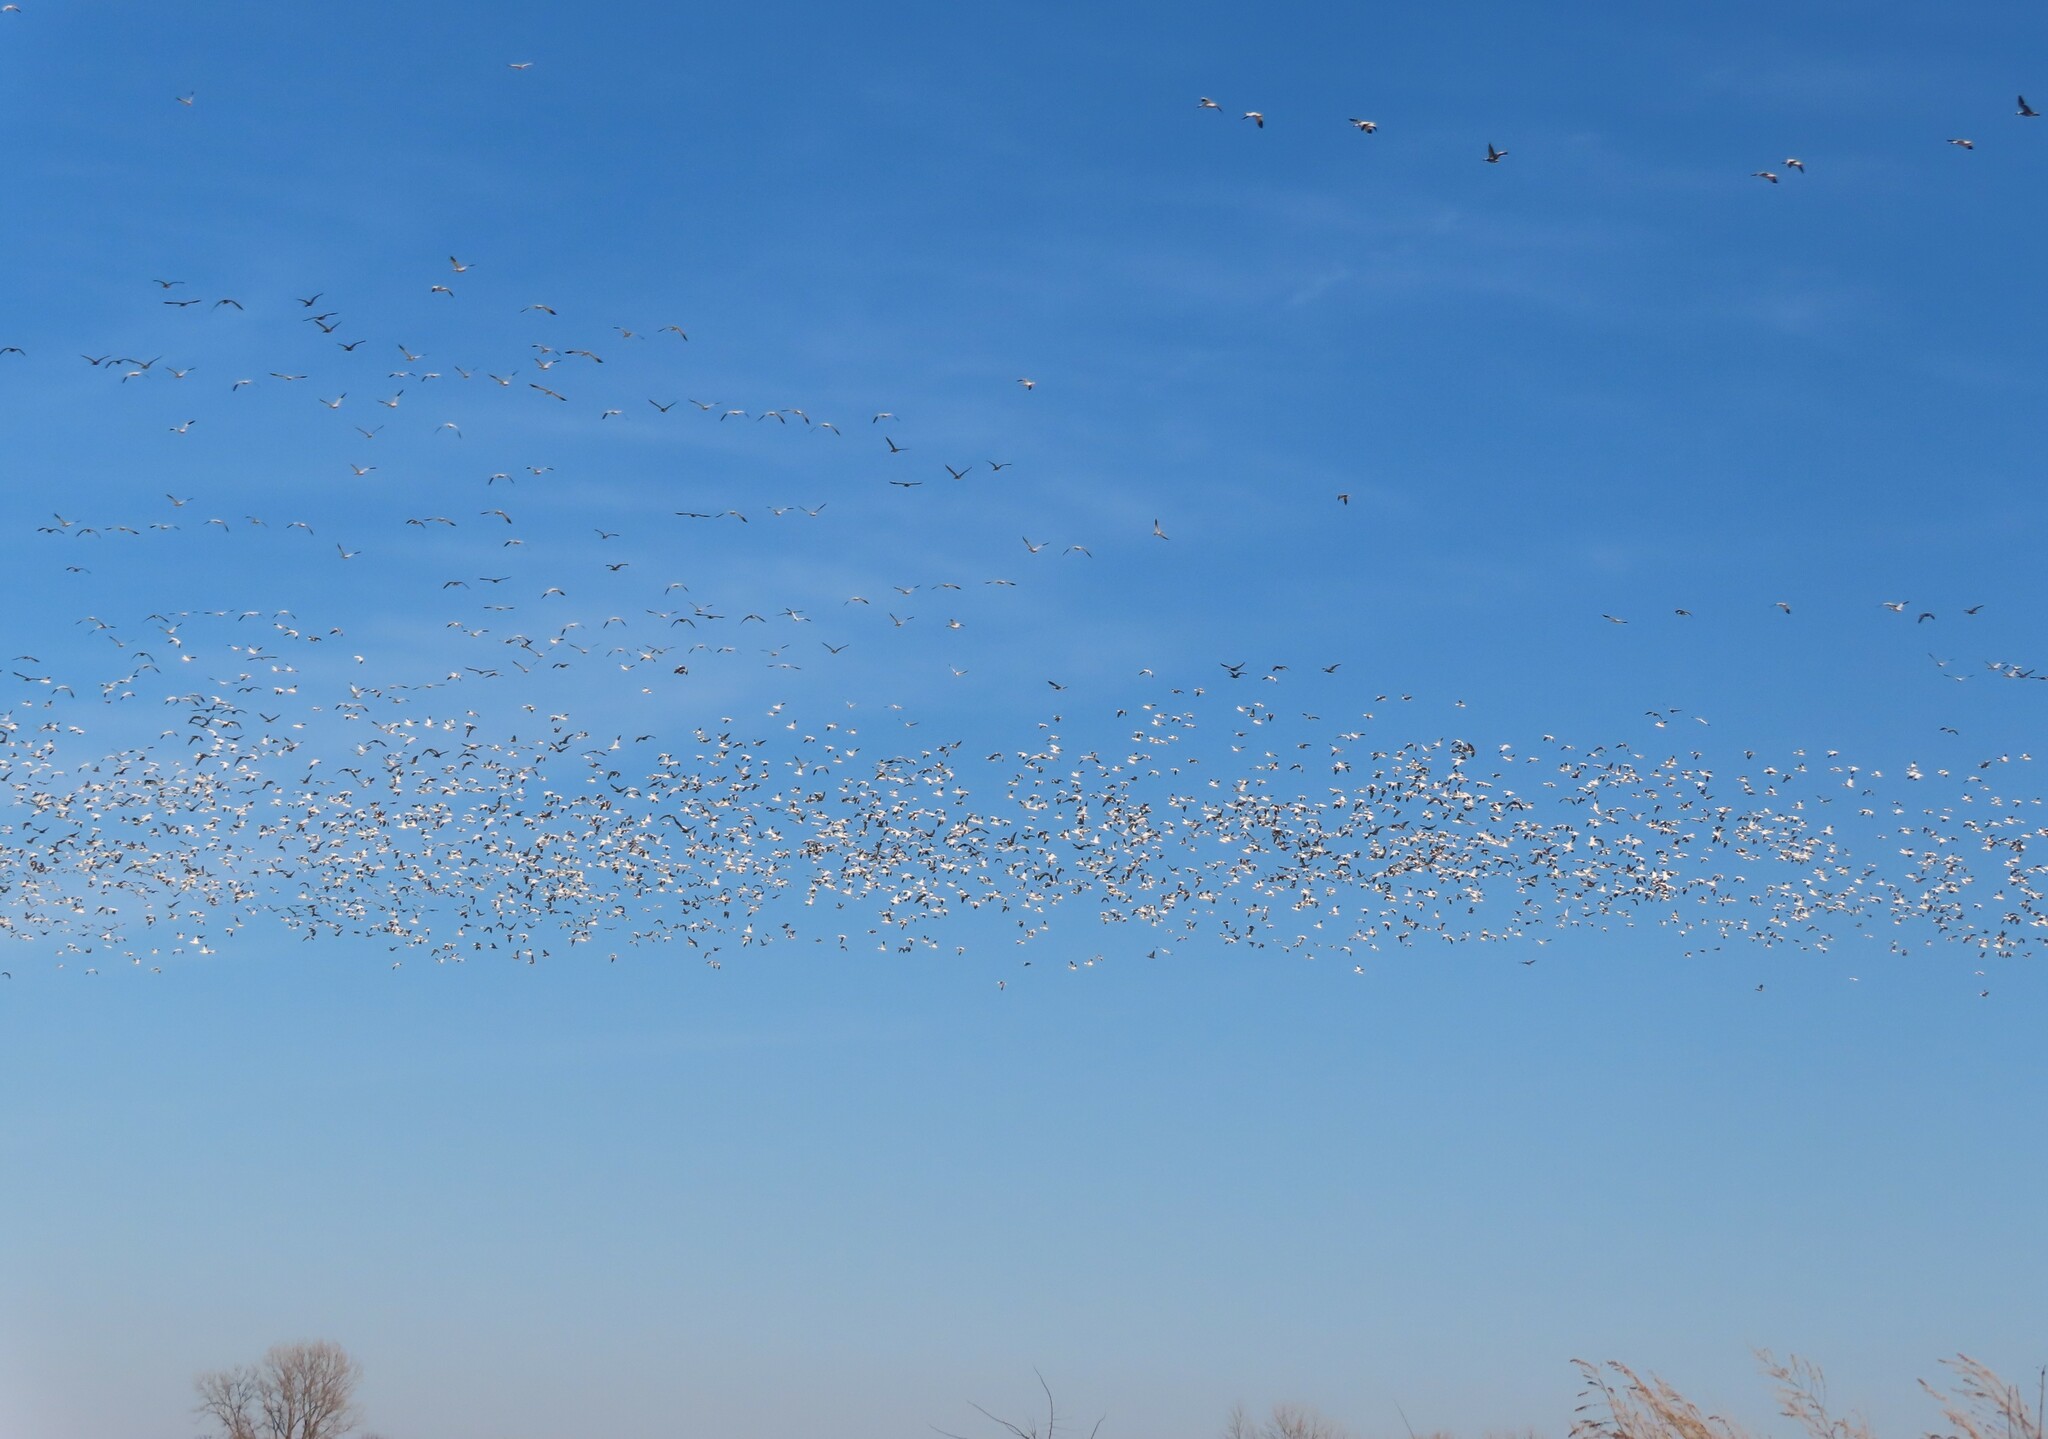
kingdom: Animalia
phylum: Chordata
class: Aves
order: Anseriformes
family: Anatidae
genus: Anser
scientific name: Anser caerulescens
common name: Snow goose
